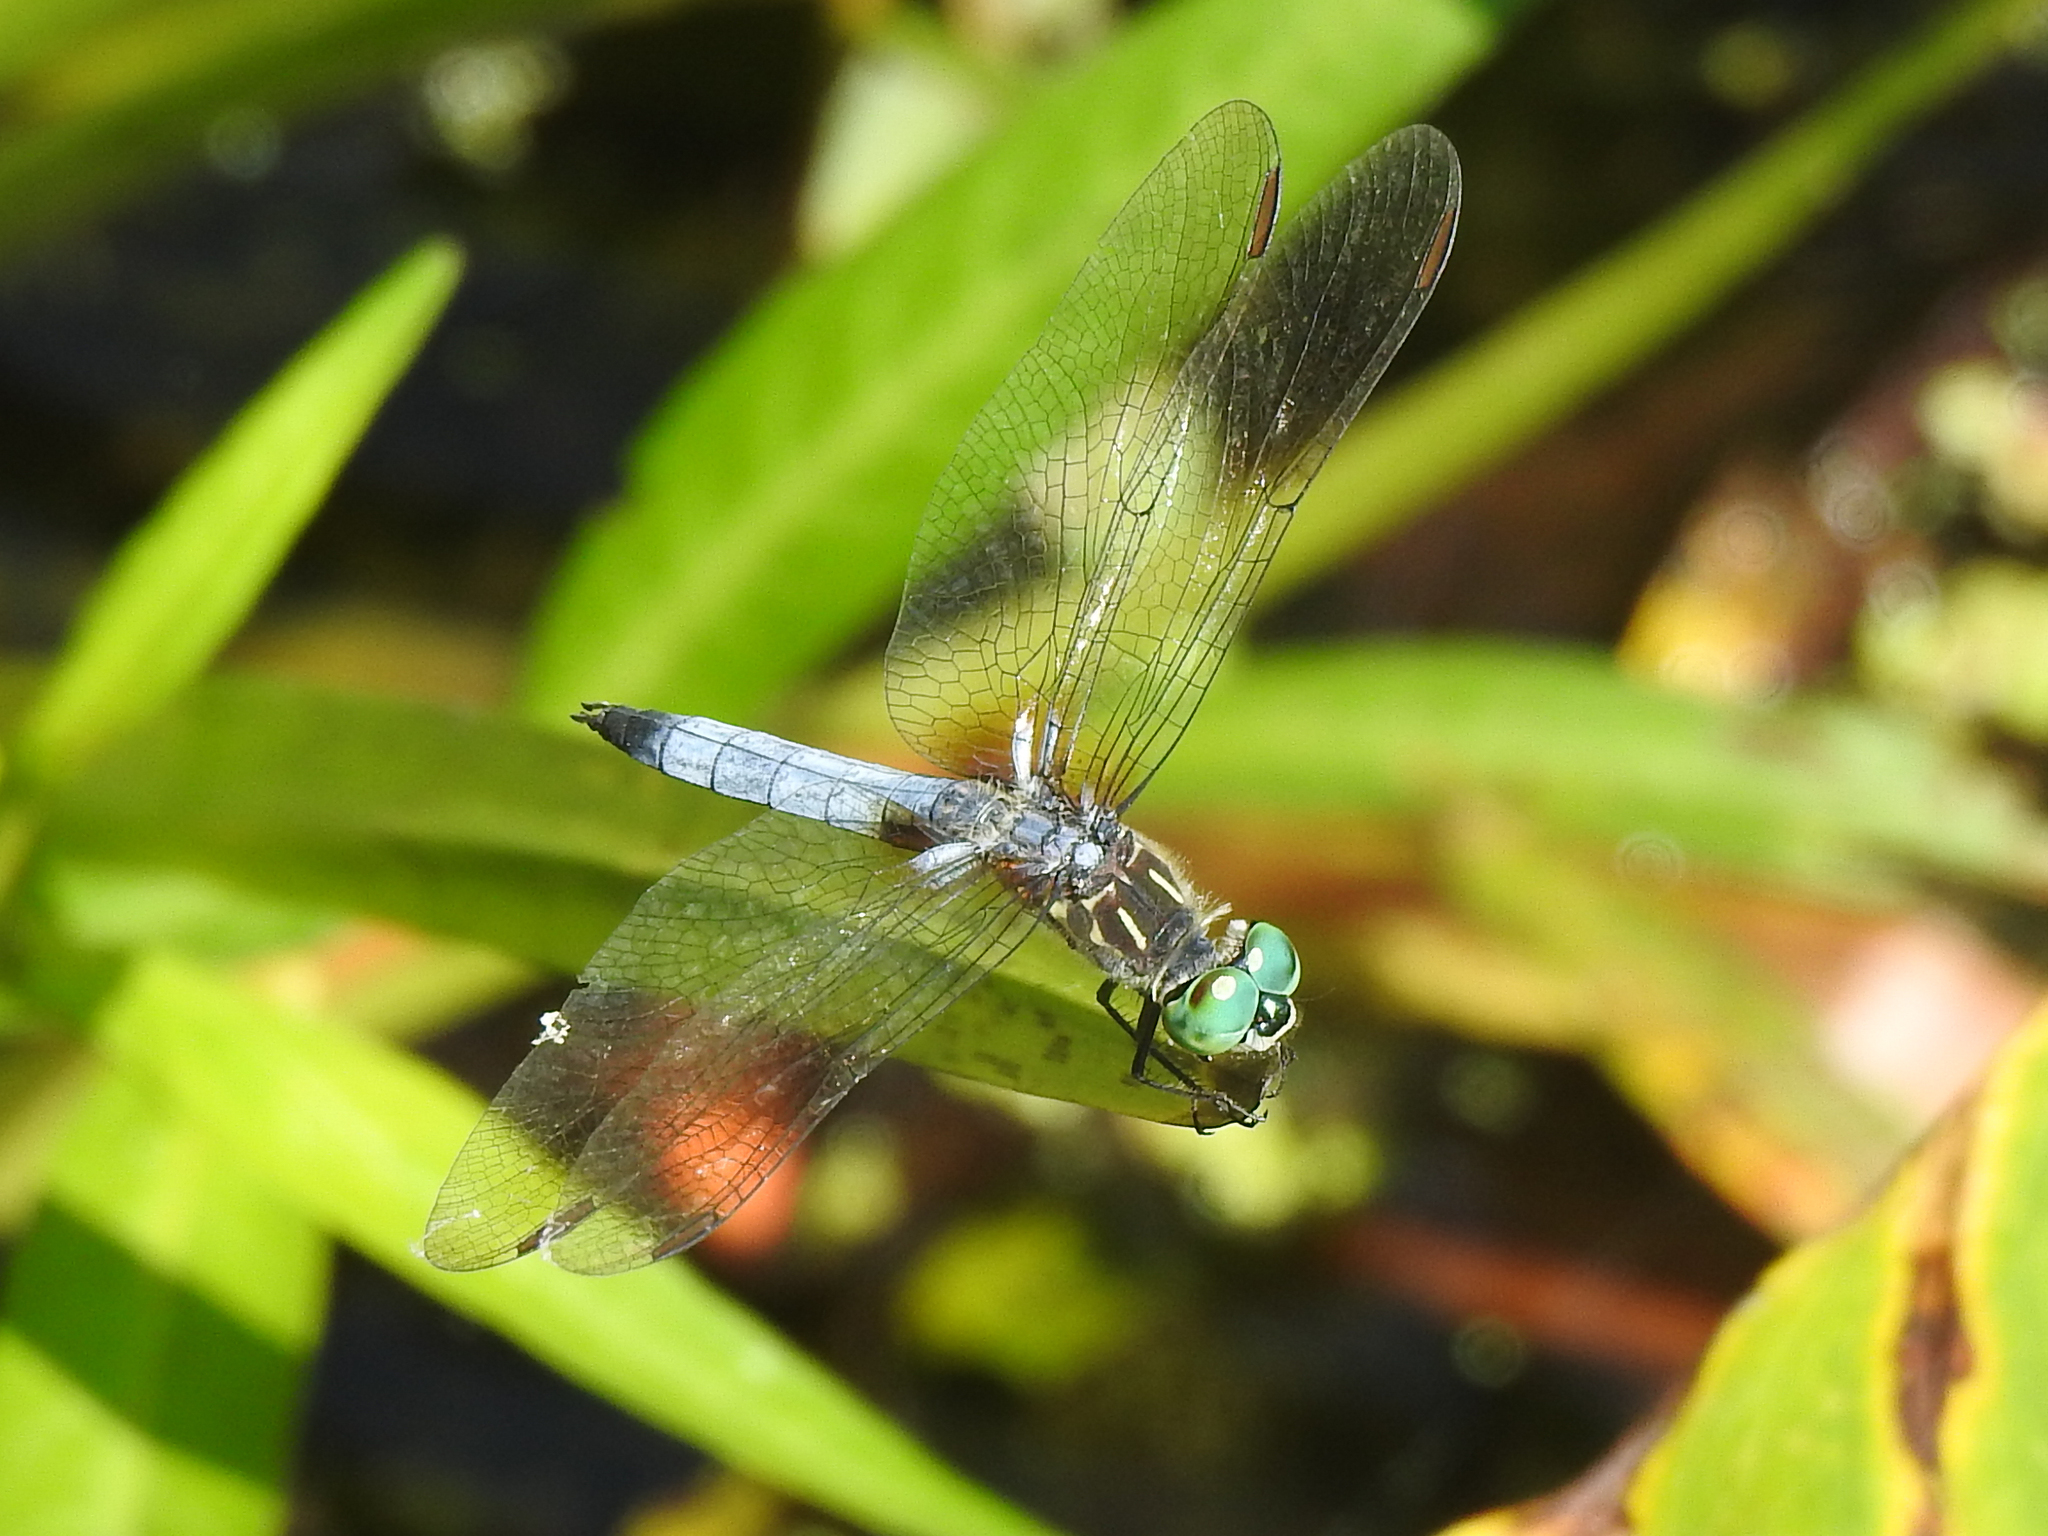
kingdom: Animalia
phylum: Arthropoda
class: Insecta
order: Odonata
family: Libellulidae
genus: Pachydiplax
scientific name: Pachydiplax longipennis
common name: Blue dasher
